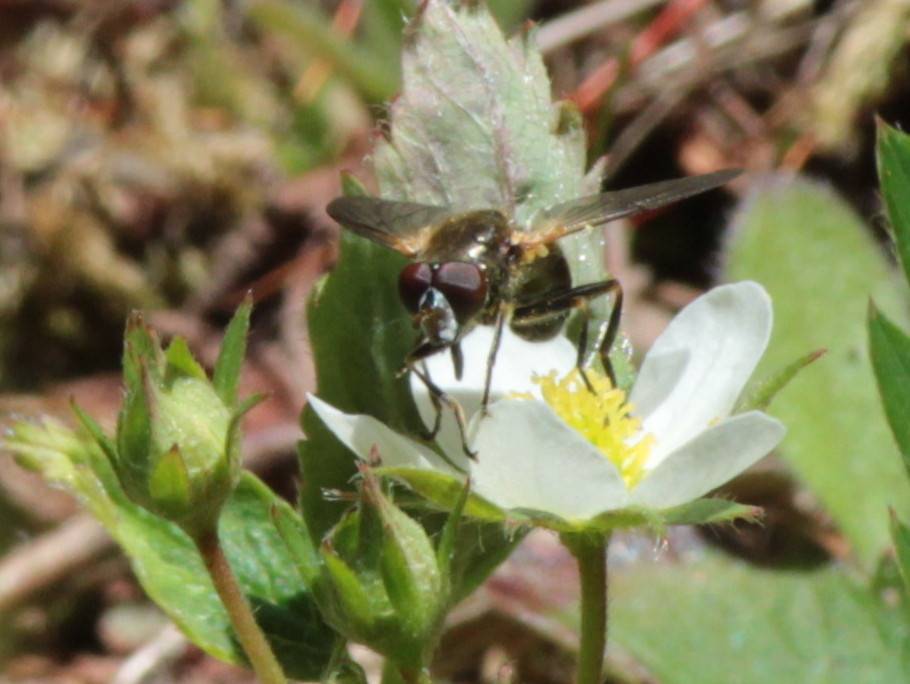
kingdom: Animalia
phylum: Arthropoda
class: Insecta
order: Diptera
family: Syrphidae
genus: Blera
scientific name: Blera nigra
